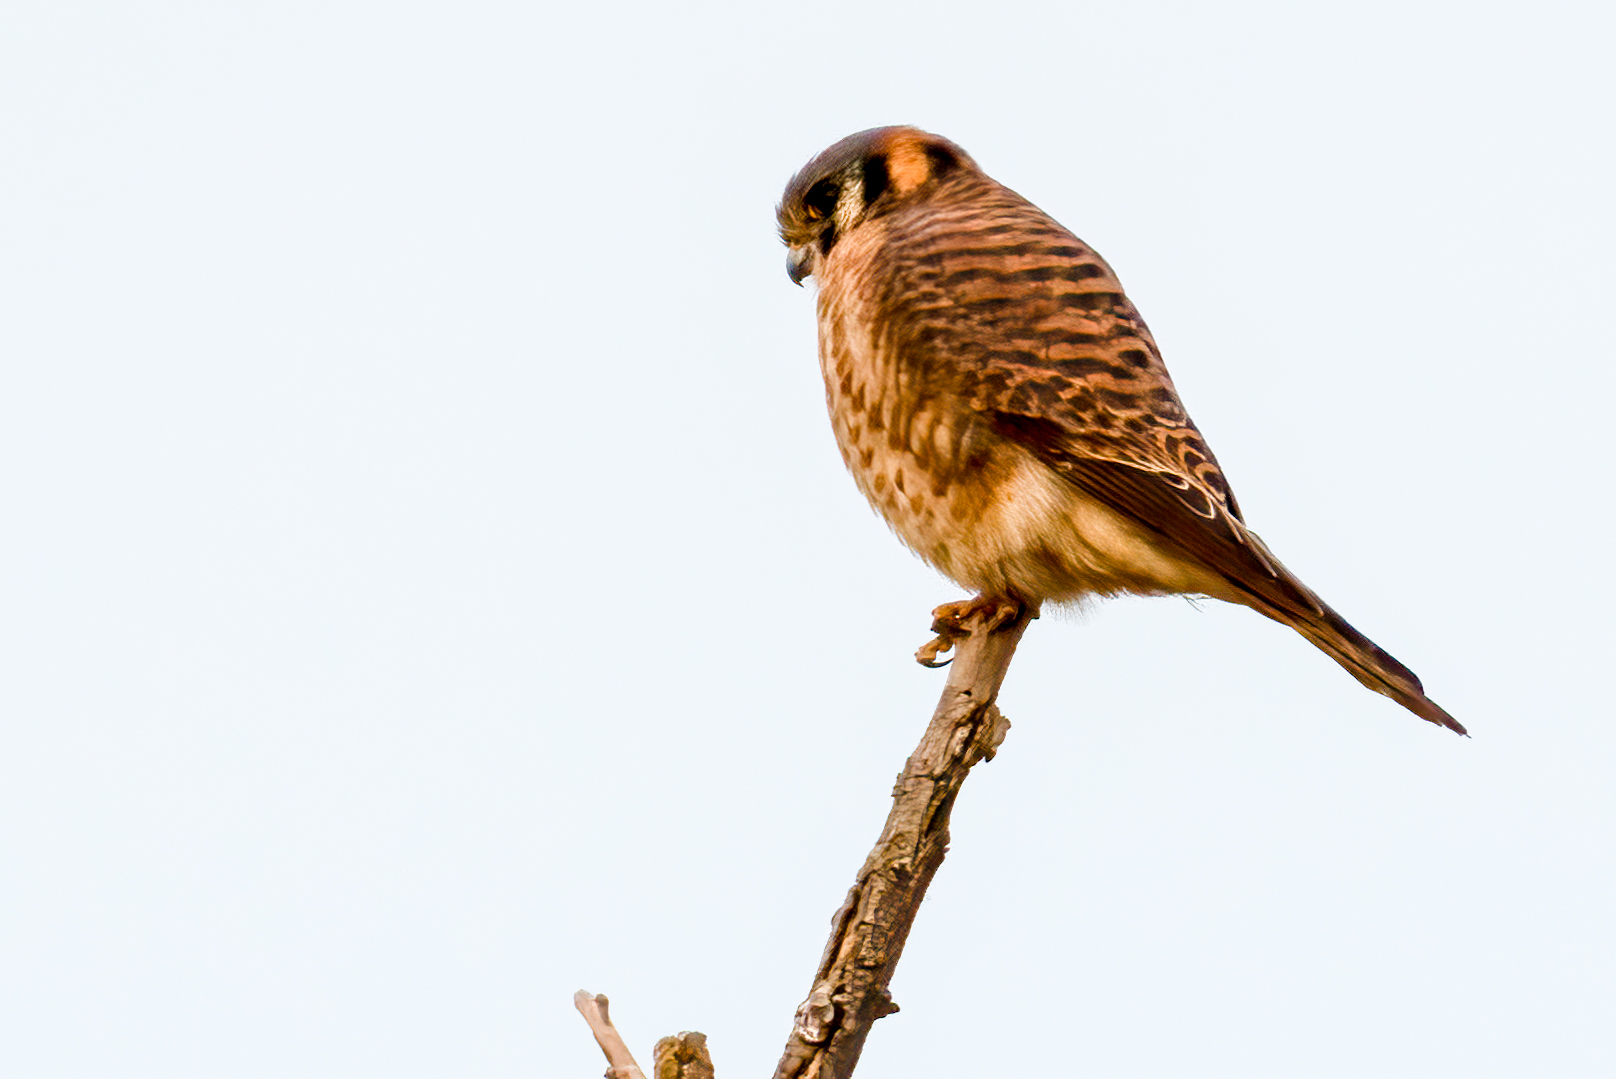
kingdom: Animalia
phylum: Chordata
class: Aves
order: Falconiformes
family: Falconidae
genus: Falco
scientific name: Falco sparverius
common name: American kestrel
